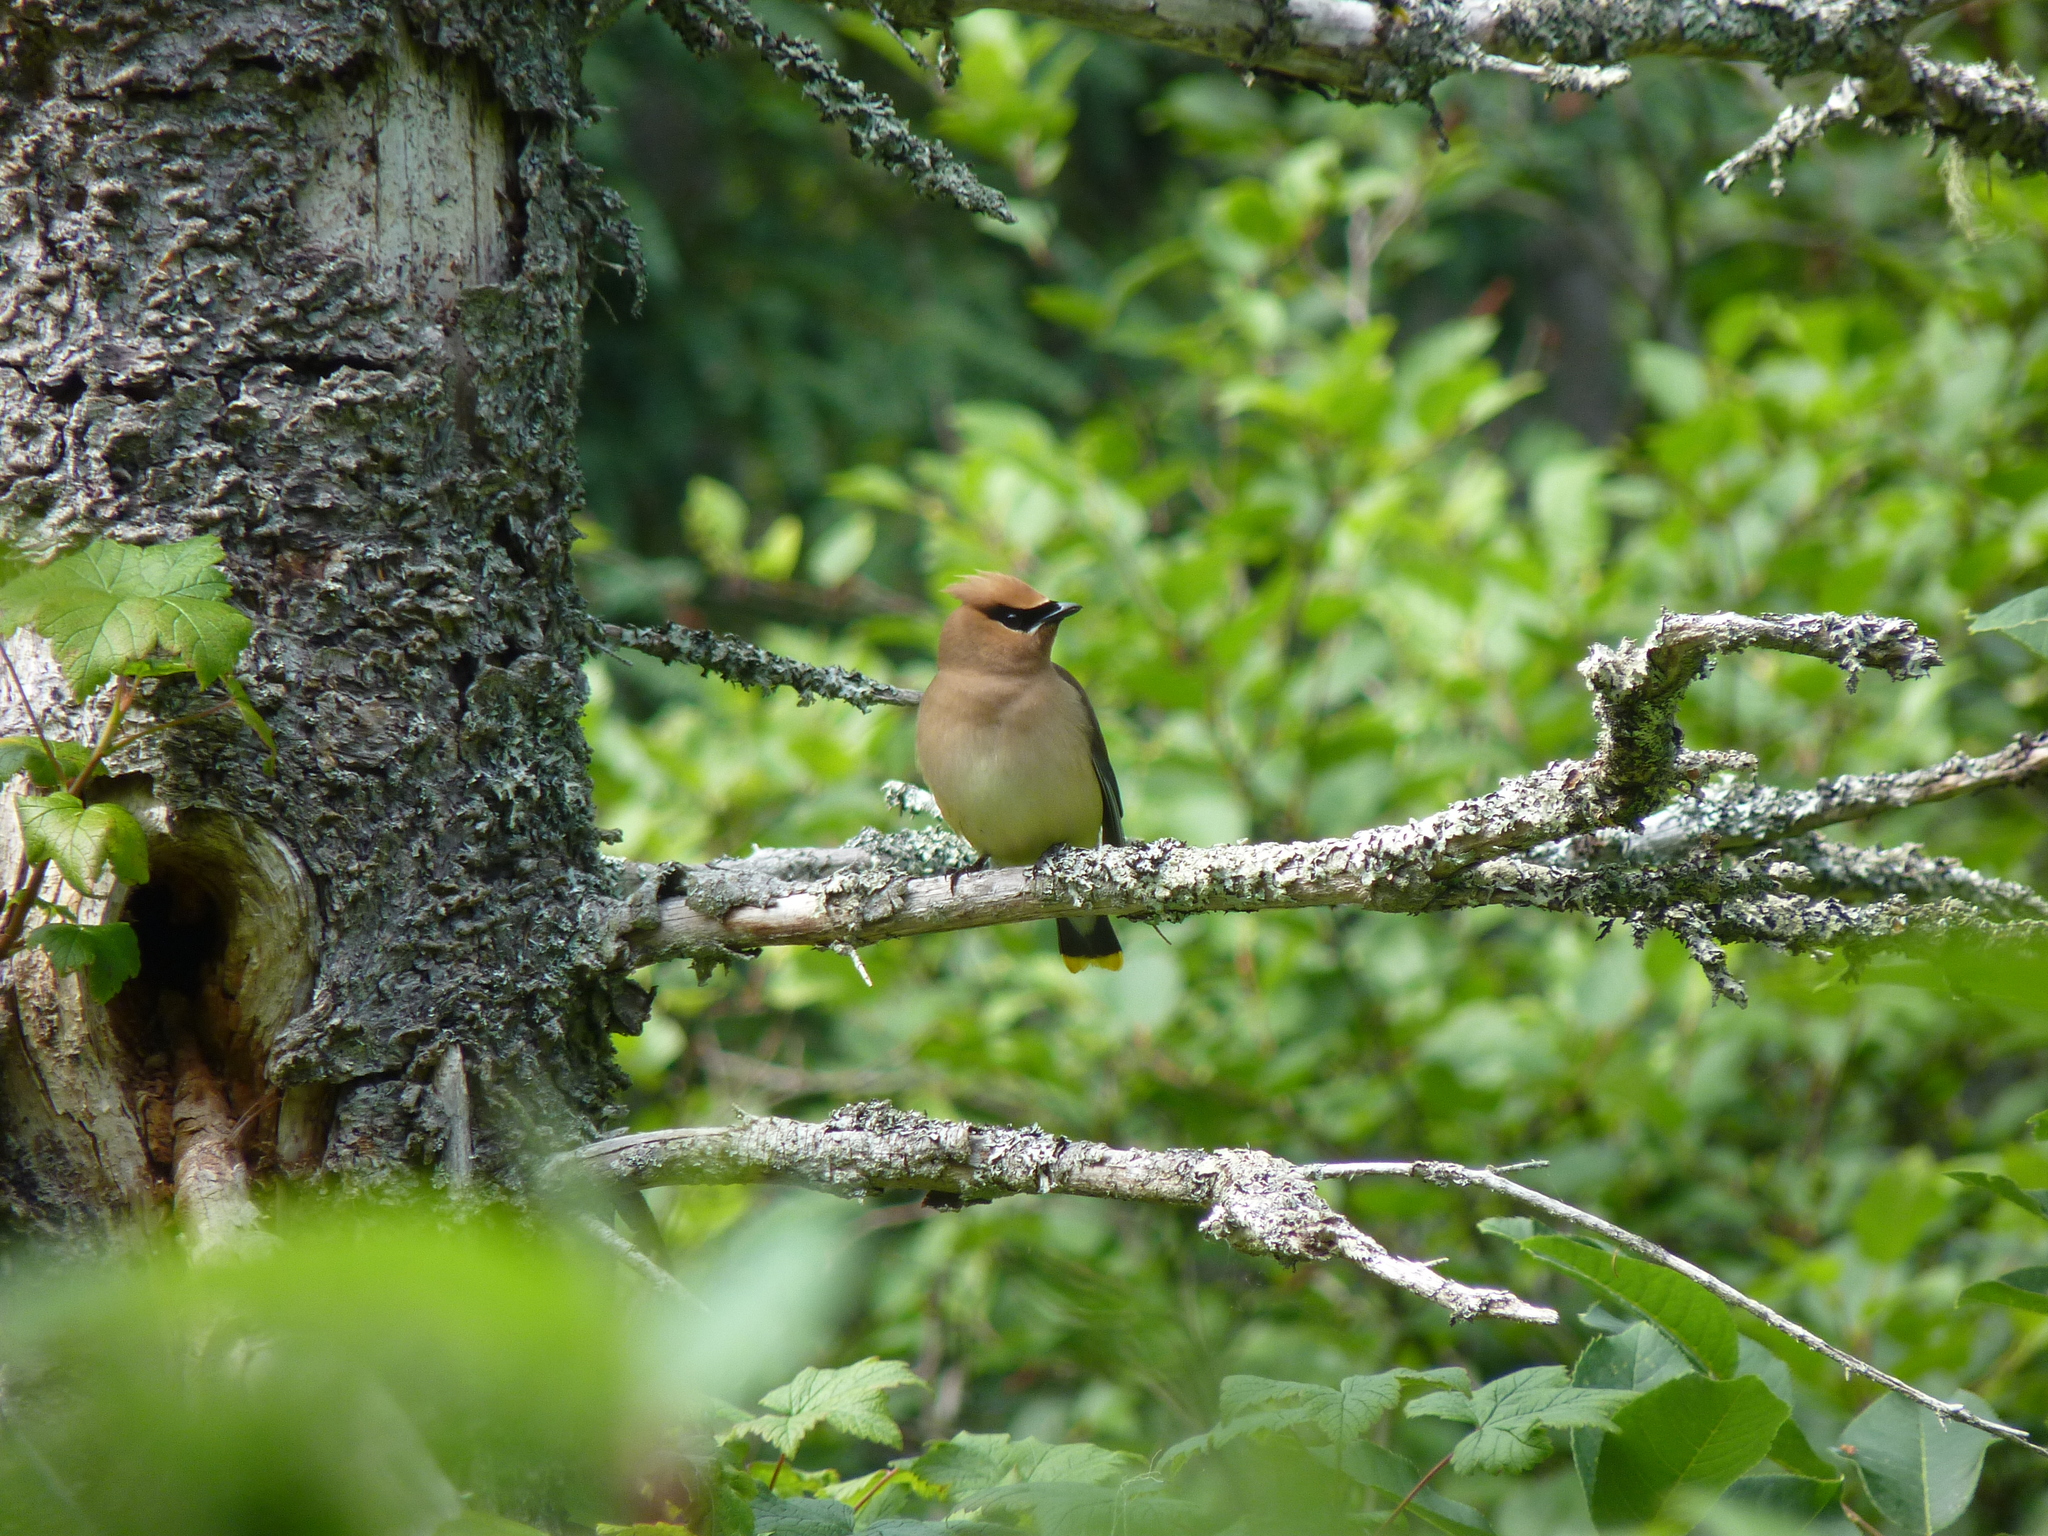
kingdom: Animalia
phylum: Chordata
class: Aves
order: Passeriformes
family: Bombycillidae
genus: Bombycilla
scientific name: Bombycilla cedrorum
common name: Cedar waxwing
